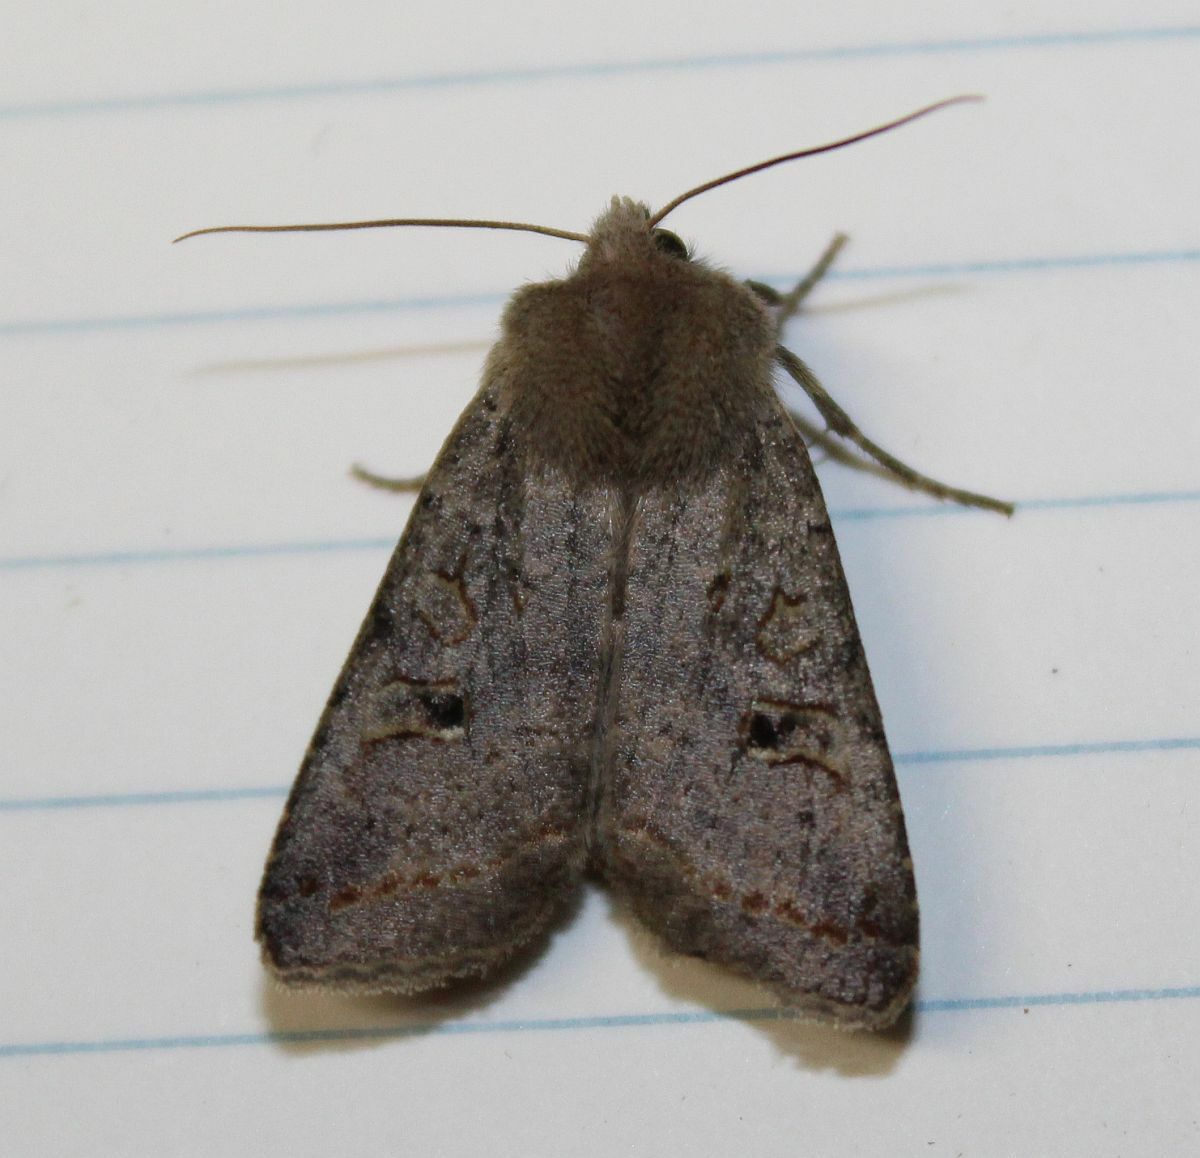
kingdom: Animalia
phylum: Arthropoda
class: Insecta
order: Lepidoptera
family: Noctuidae
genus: Agrochola
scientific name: Agrochola lota
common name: Red-line quaker
